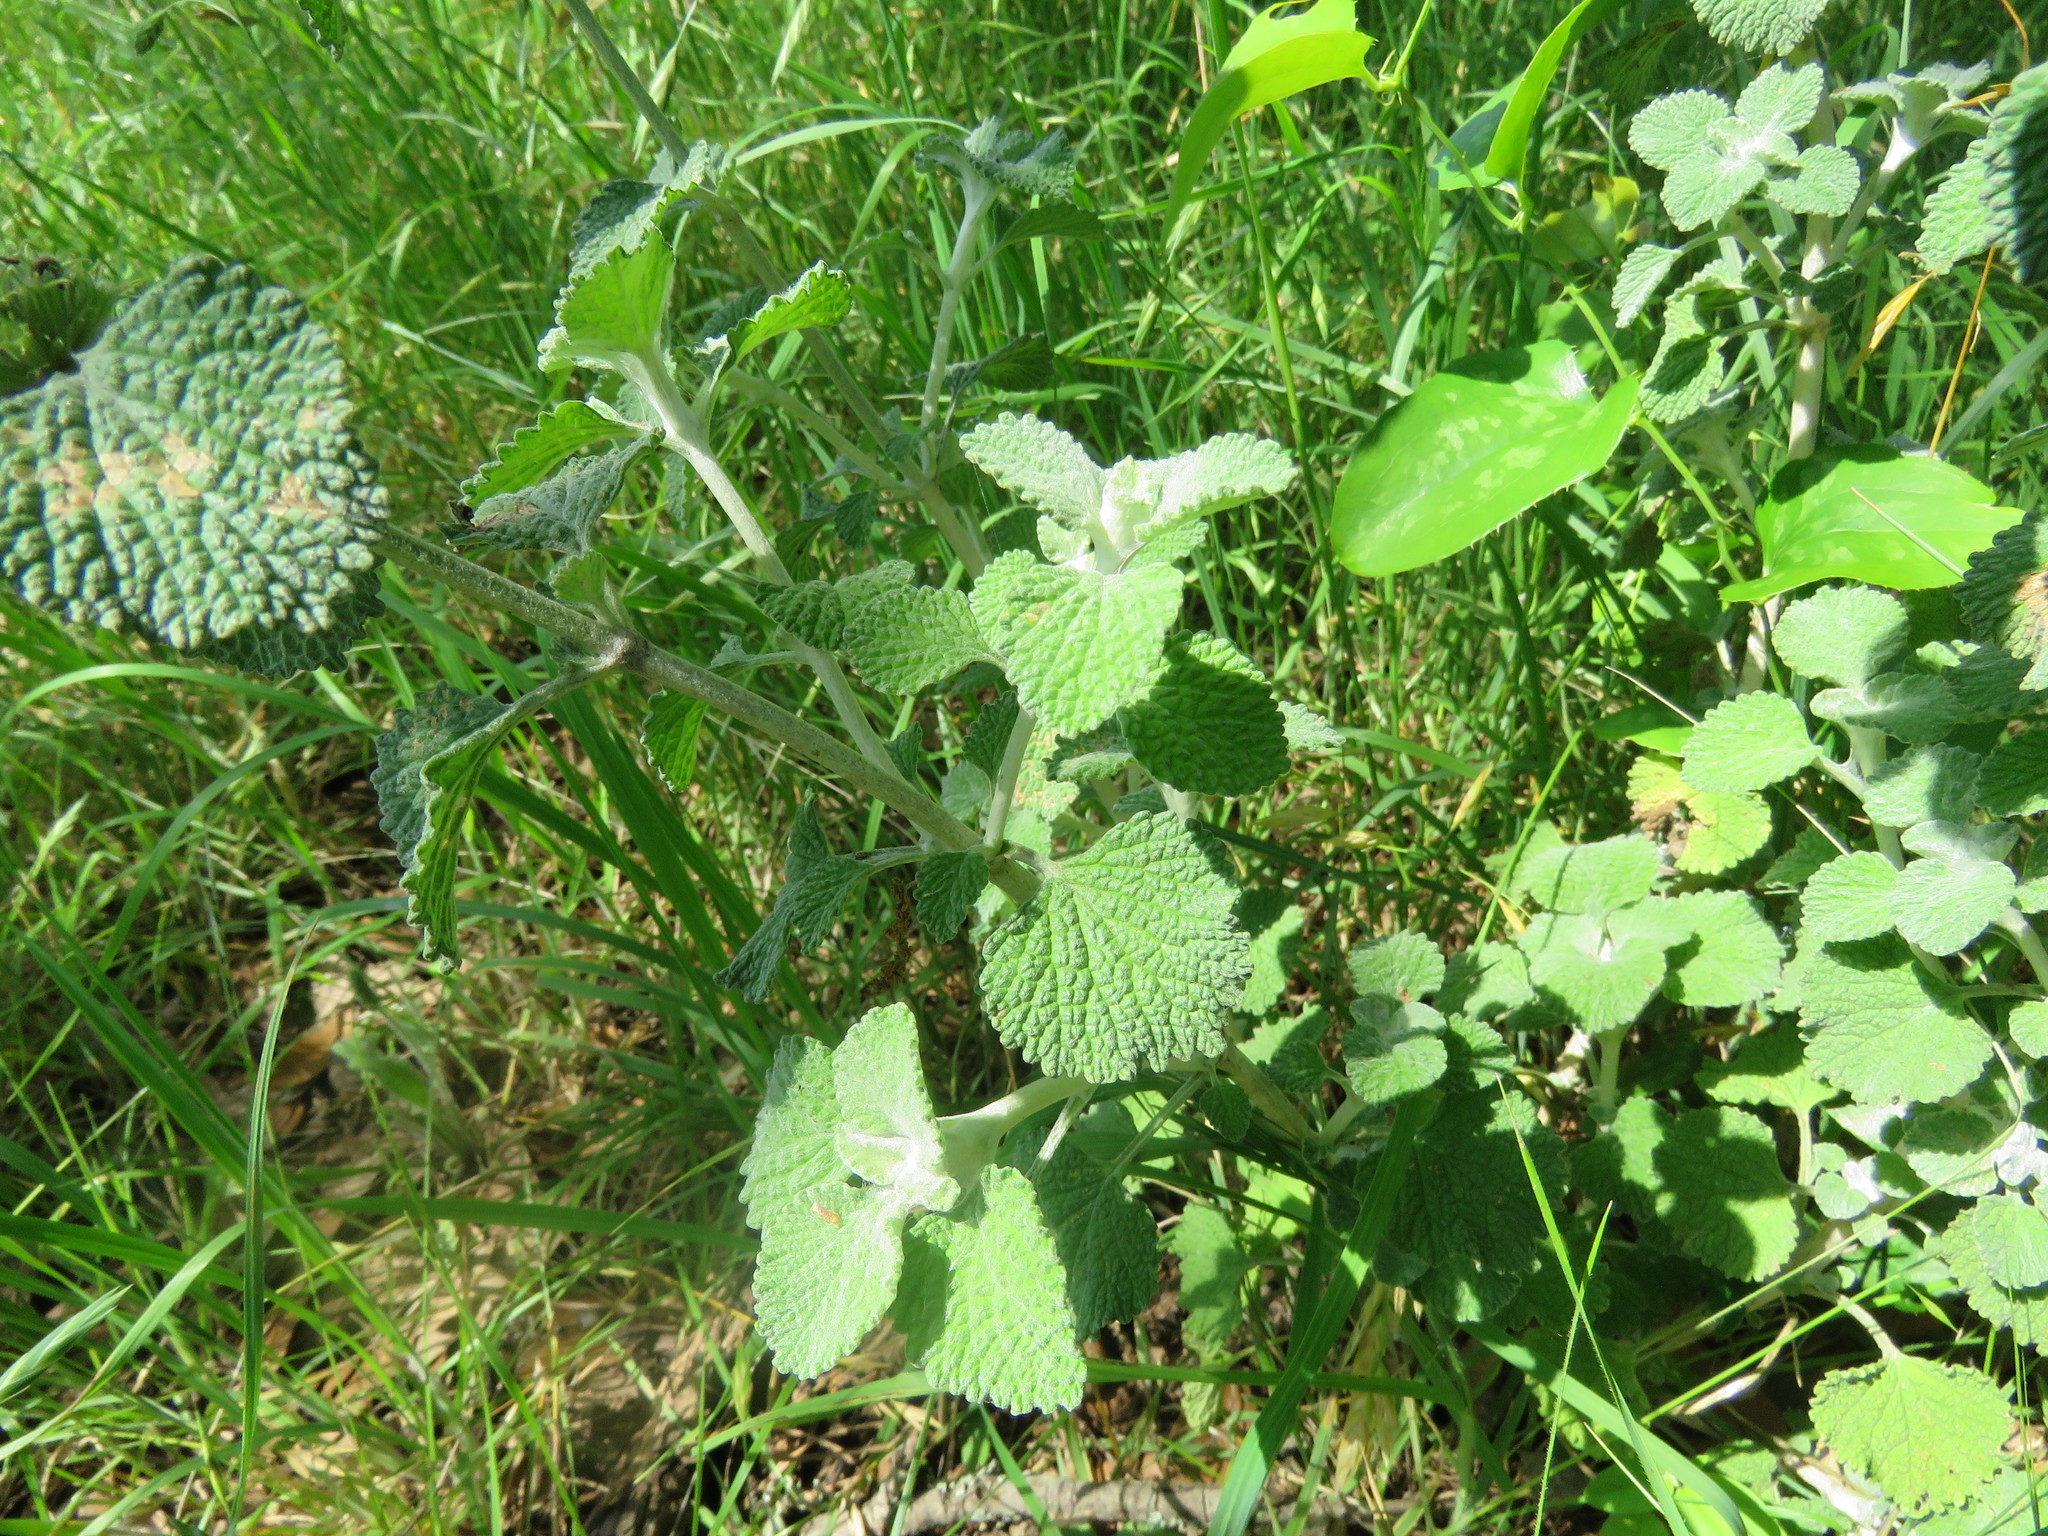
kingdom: Plantae
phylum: Tracheophyta
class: Magnoliopsida
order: Lamiales
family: Lamiaceae
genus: Marrubium
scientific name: Marrubium vulgare
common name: Horehound
